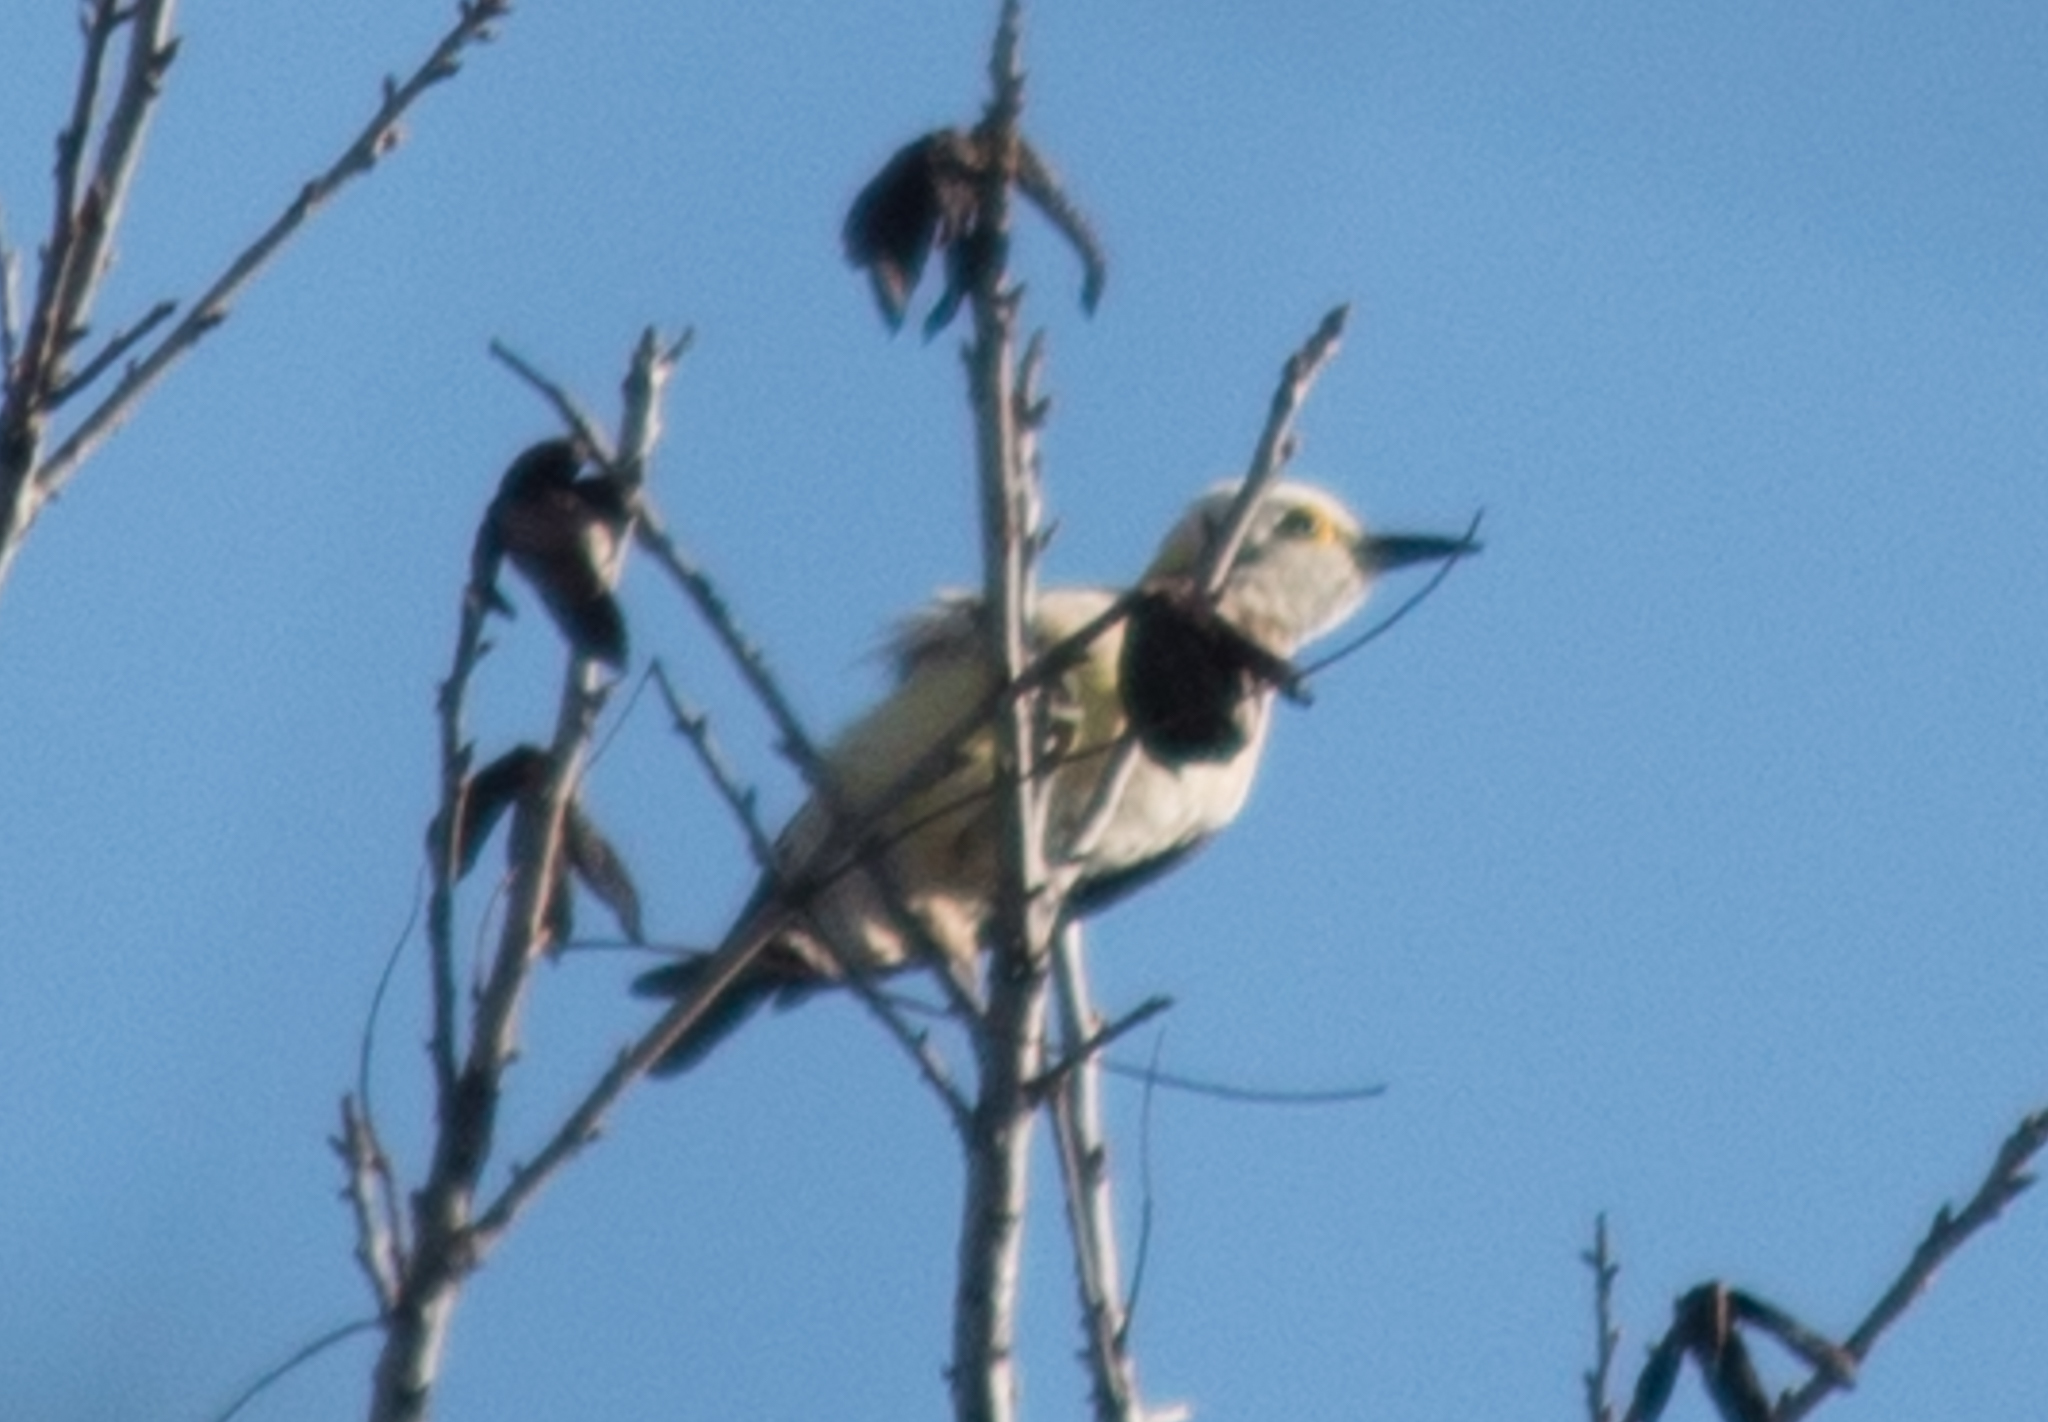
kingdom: Animalia
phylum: Chordata
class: Aves
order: Piciformes
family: Picidae
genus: Melanerpes
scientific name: Melanerpes candidus
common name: White woodpecker
